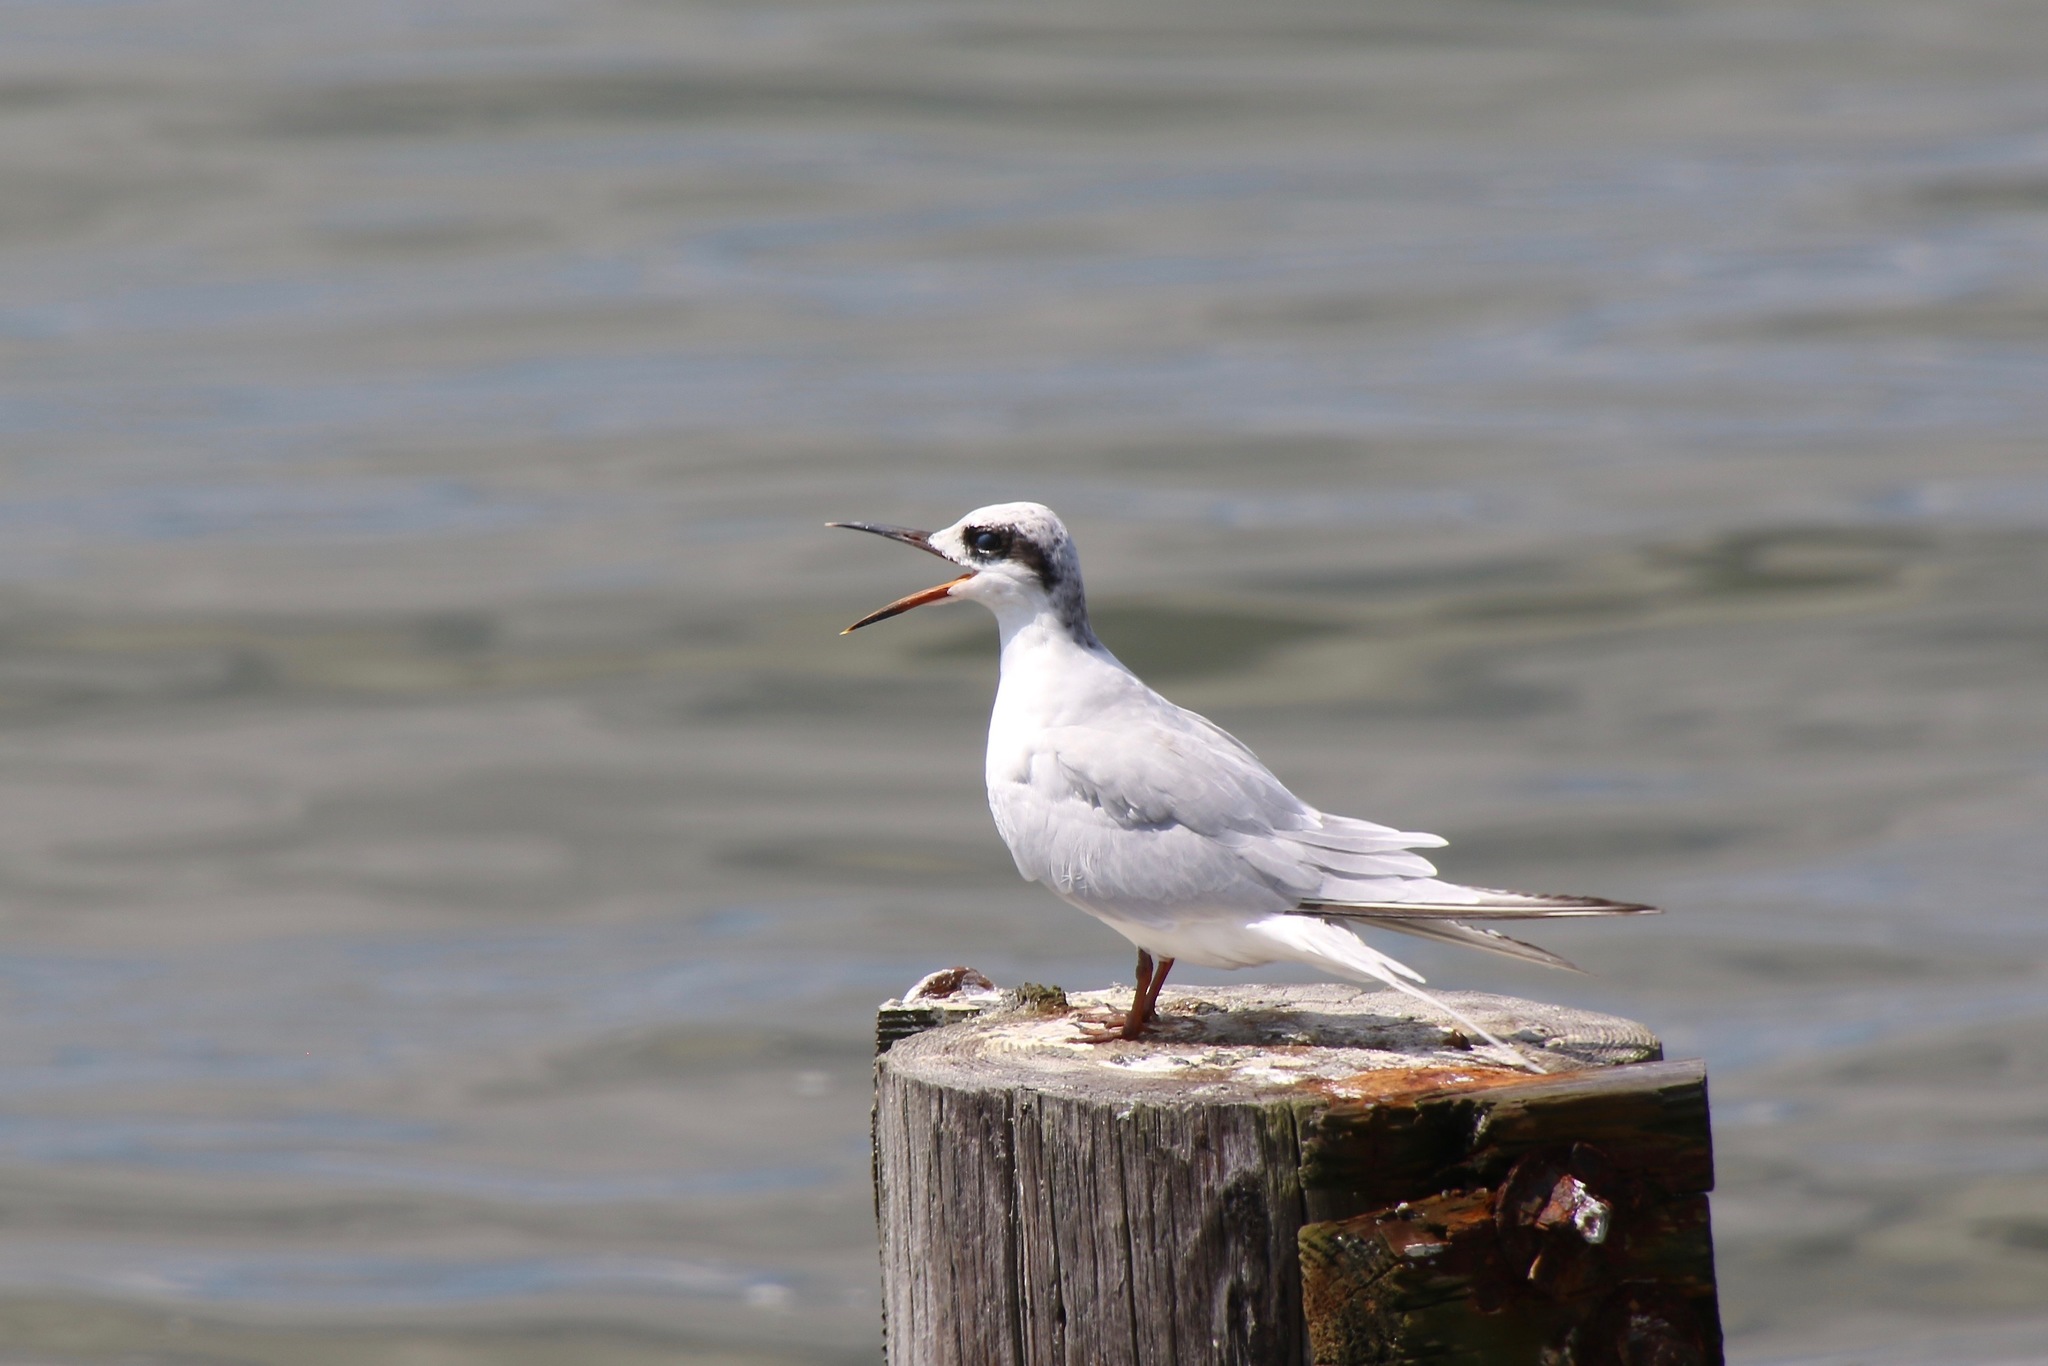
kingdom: Animalia
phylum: Chordata
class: Aves
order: Charadriiformes
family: Laridae
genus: Sterna
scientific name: Sterna forsteri
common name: Forster's tern
